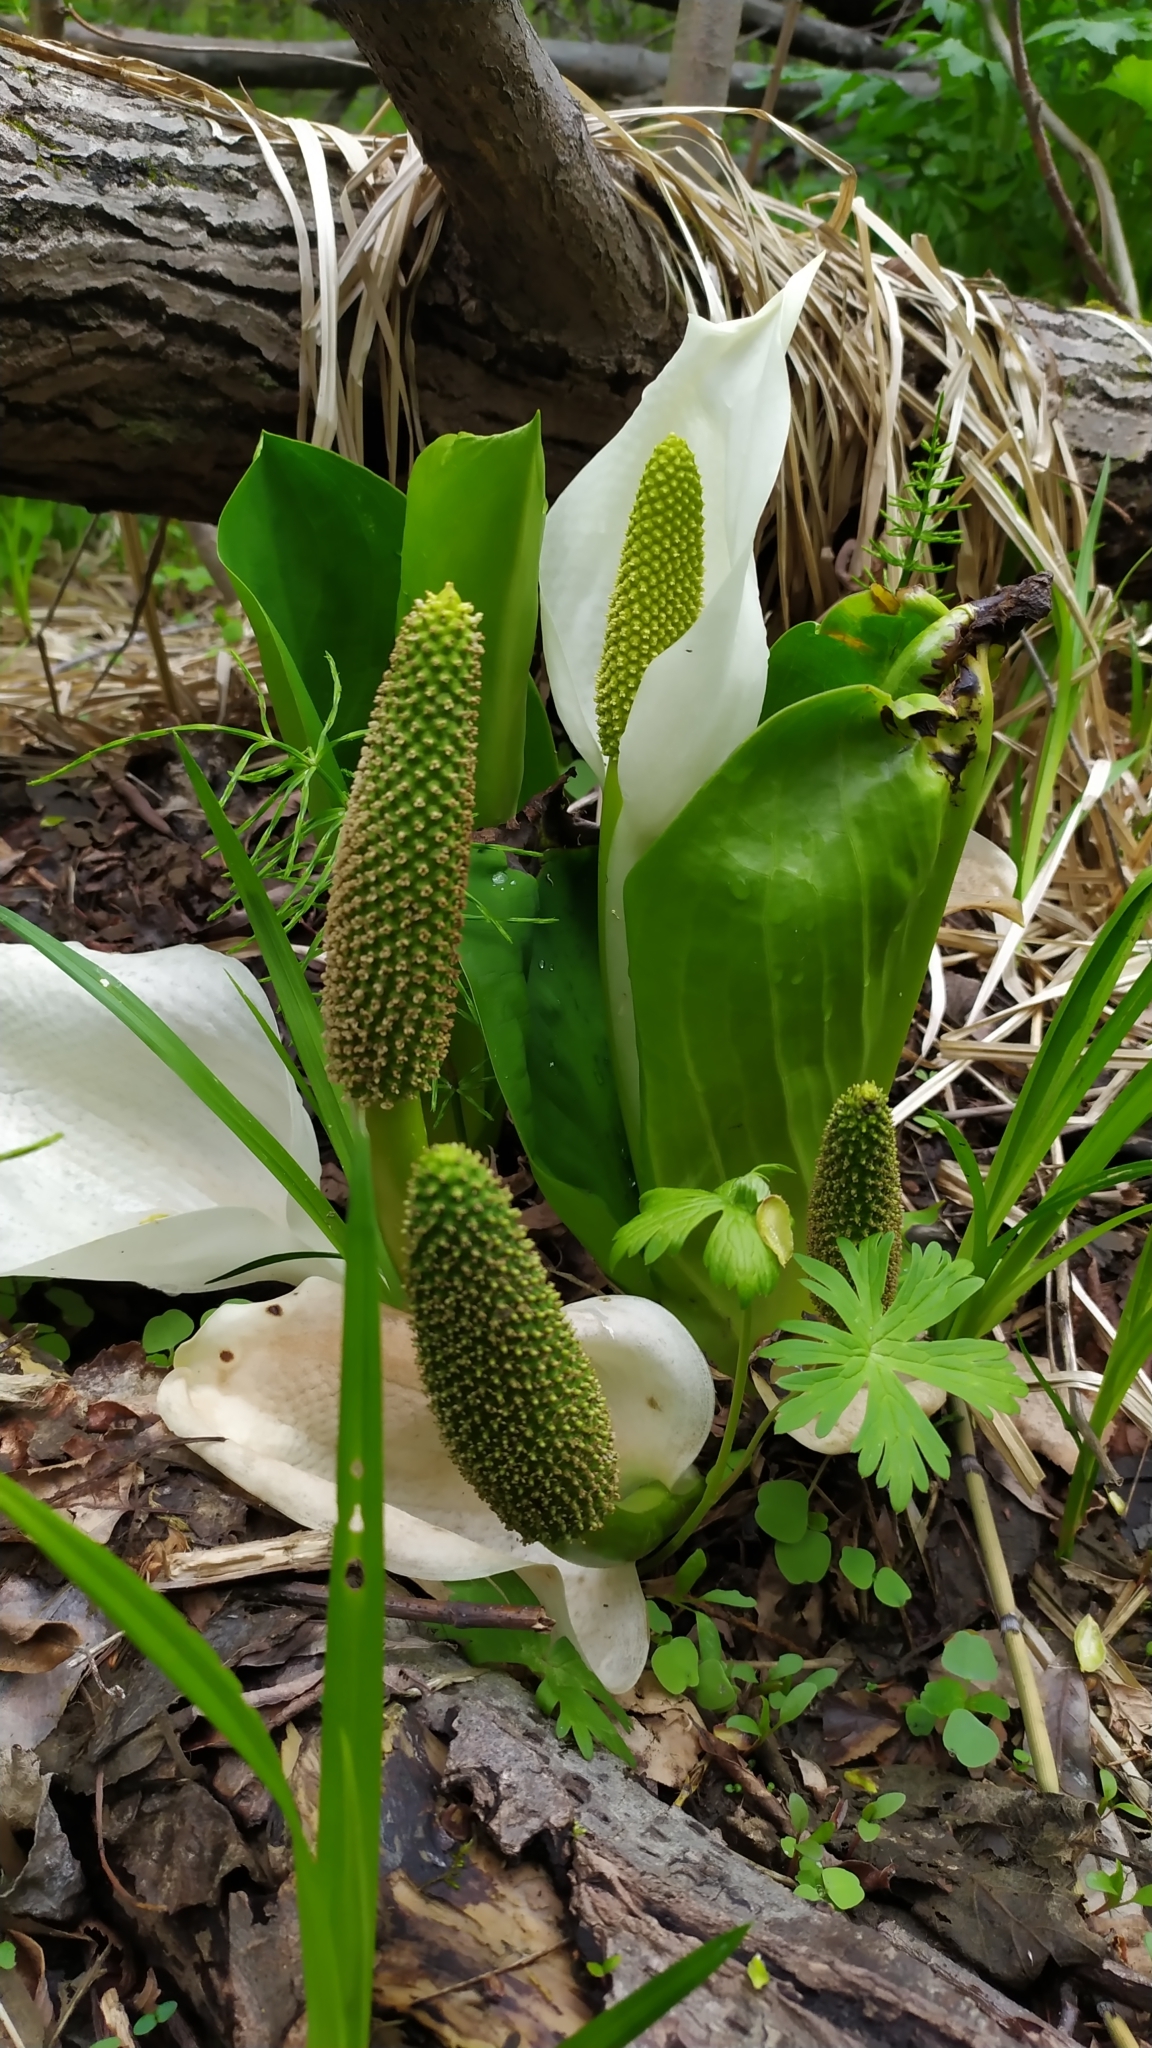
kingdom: Plantae
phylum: Tracheophyta
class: Liliopsida
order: Alismatales
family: Araceae
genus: Lysichiton
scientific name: Lysichiton camtschatcensis
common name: Asian skunk-cabbage
